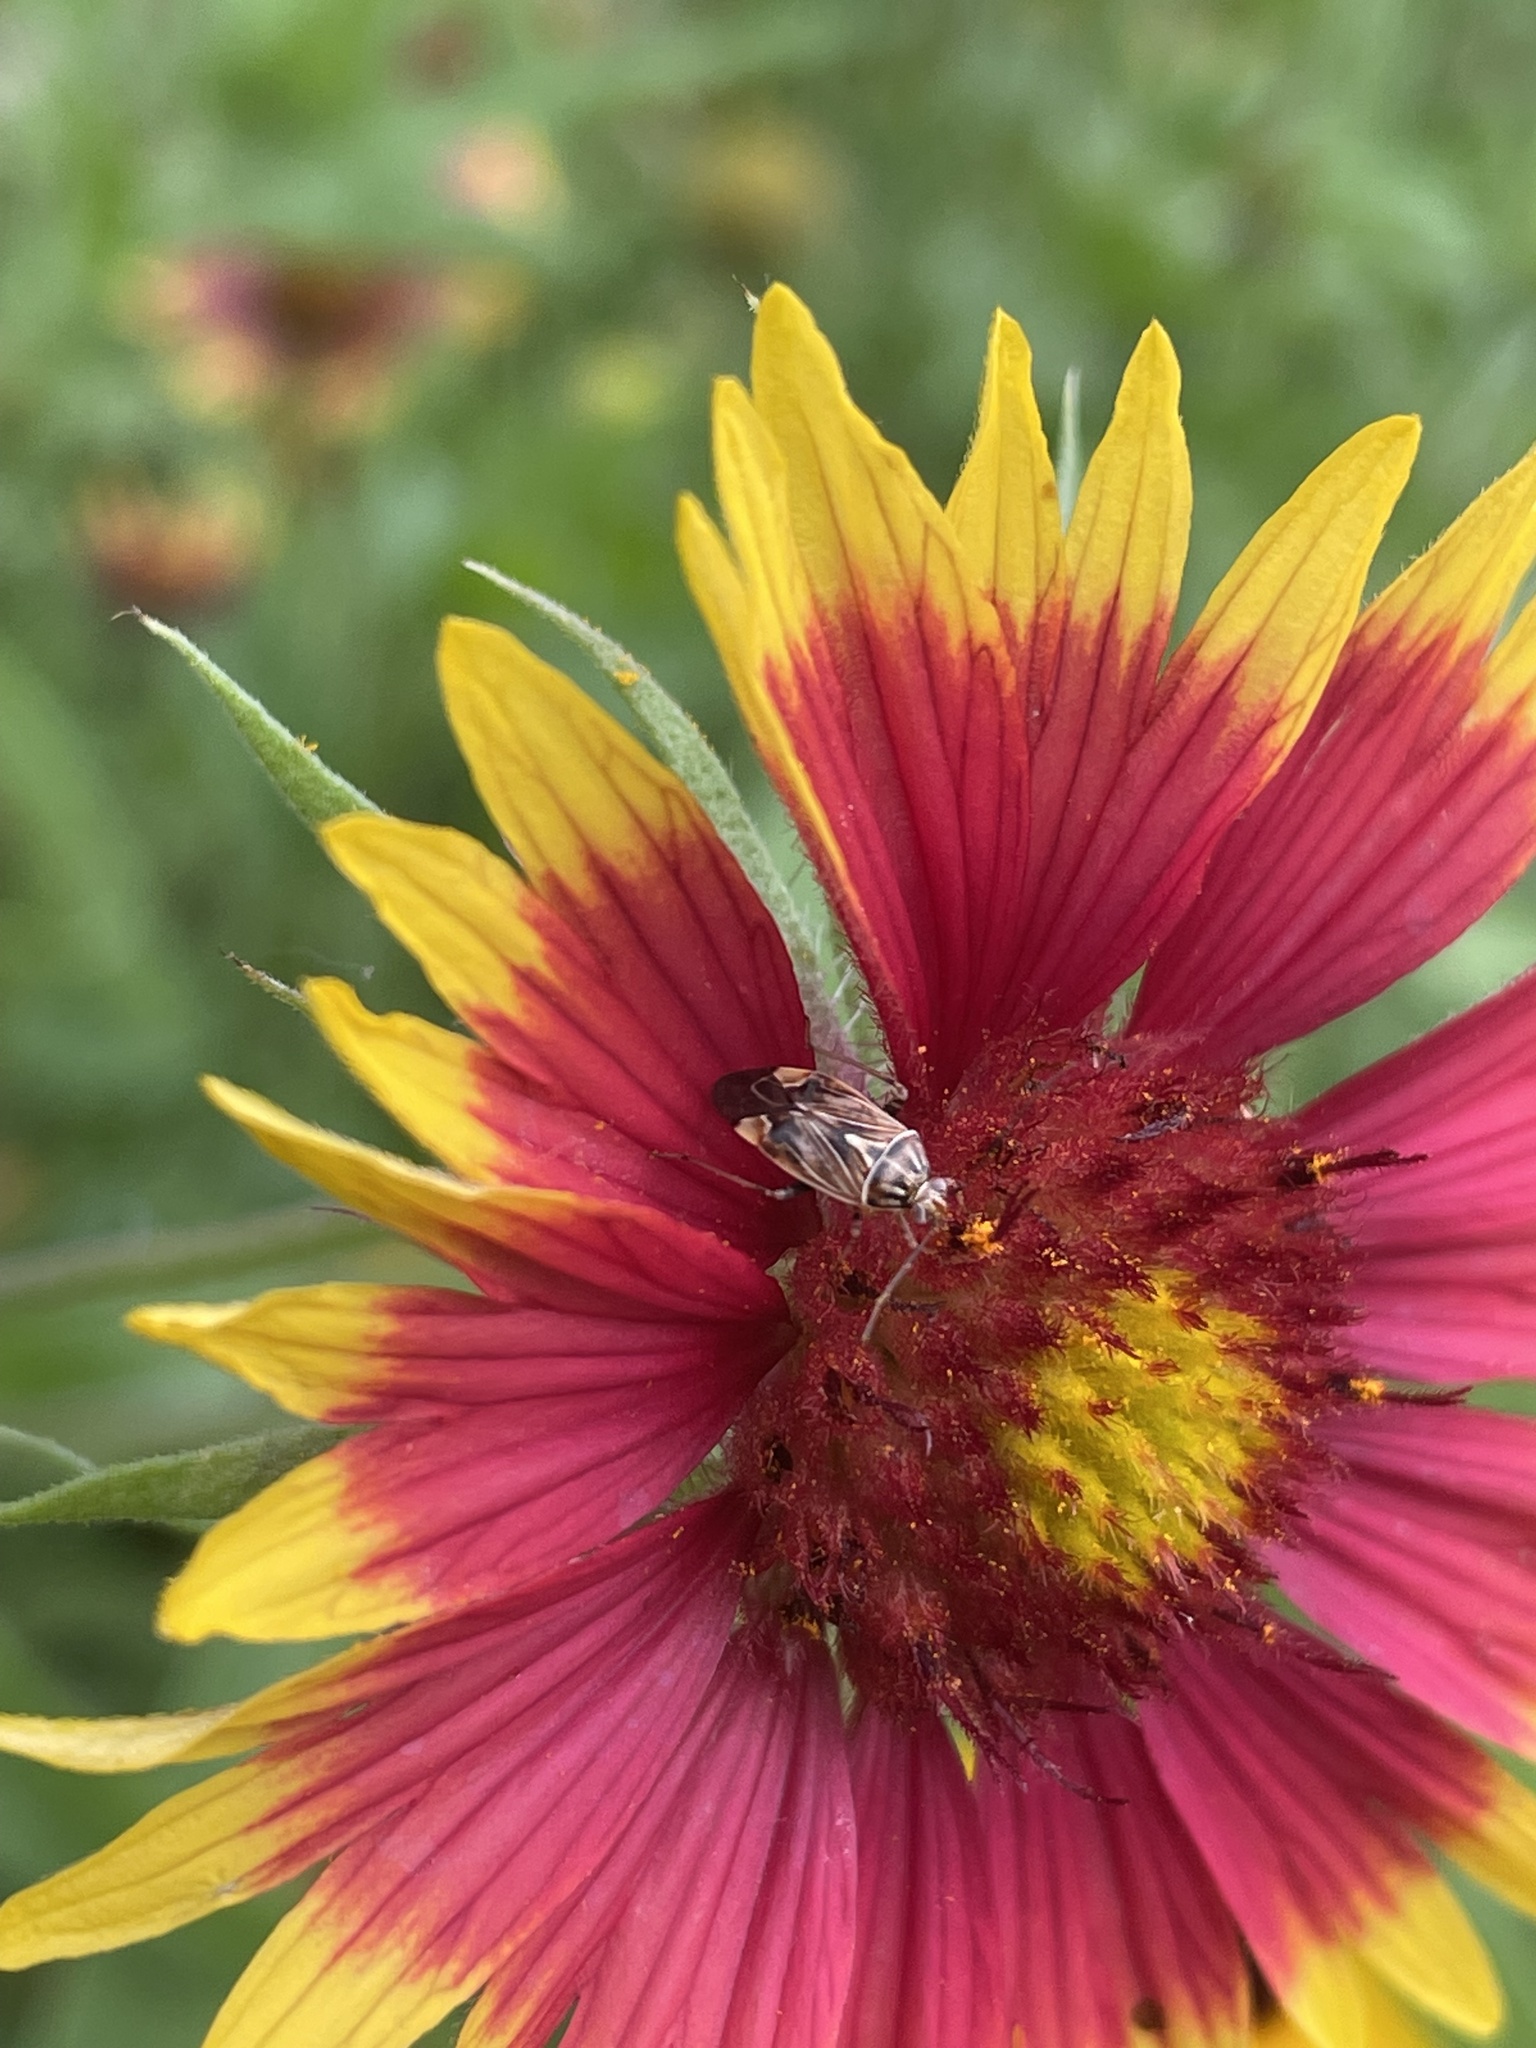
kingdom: Animalia
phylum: Arthropoda
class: Insecta
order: Hemiptera
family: Miridae
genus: Lygus
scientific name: Lygus lineolaris
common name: North american tarnished plant bug
